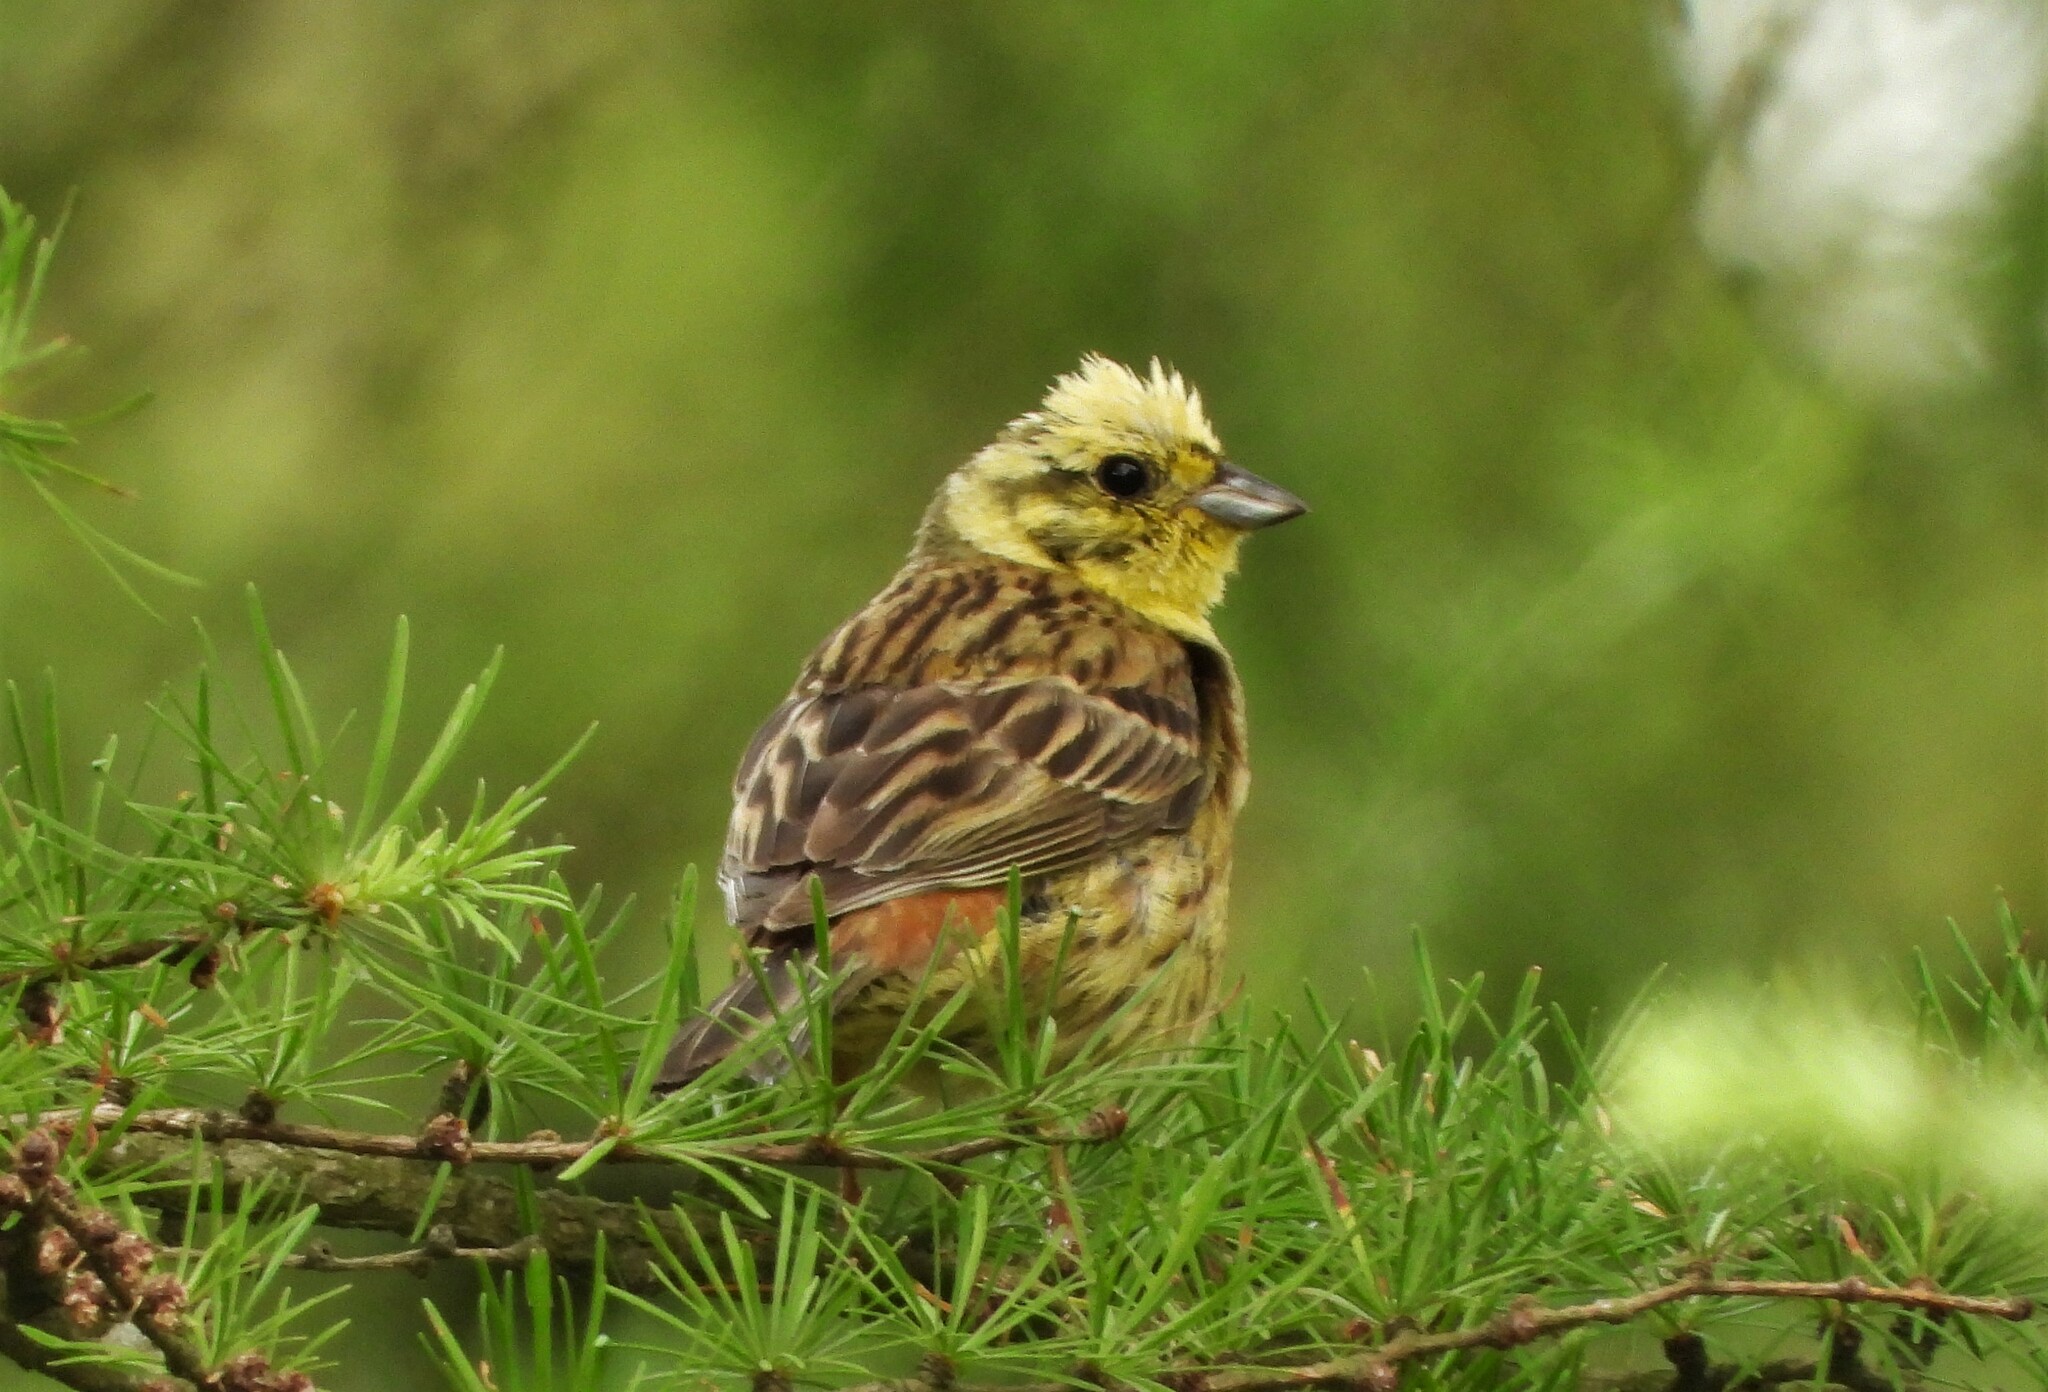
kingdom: Animalia
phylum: Chordata
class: Aves
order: Passeriformes
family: Emberizidae
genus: Emberiza
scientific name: Emberiza citrinella
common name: Yellowhammer
